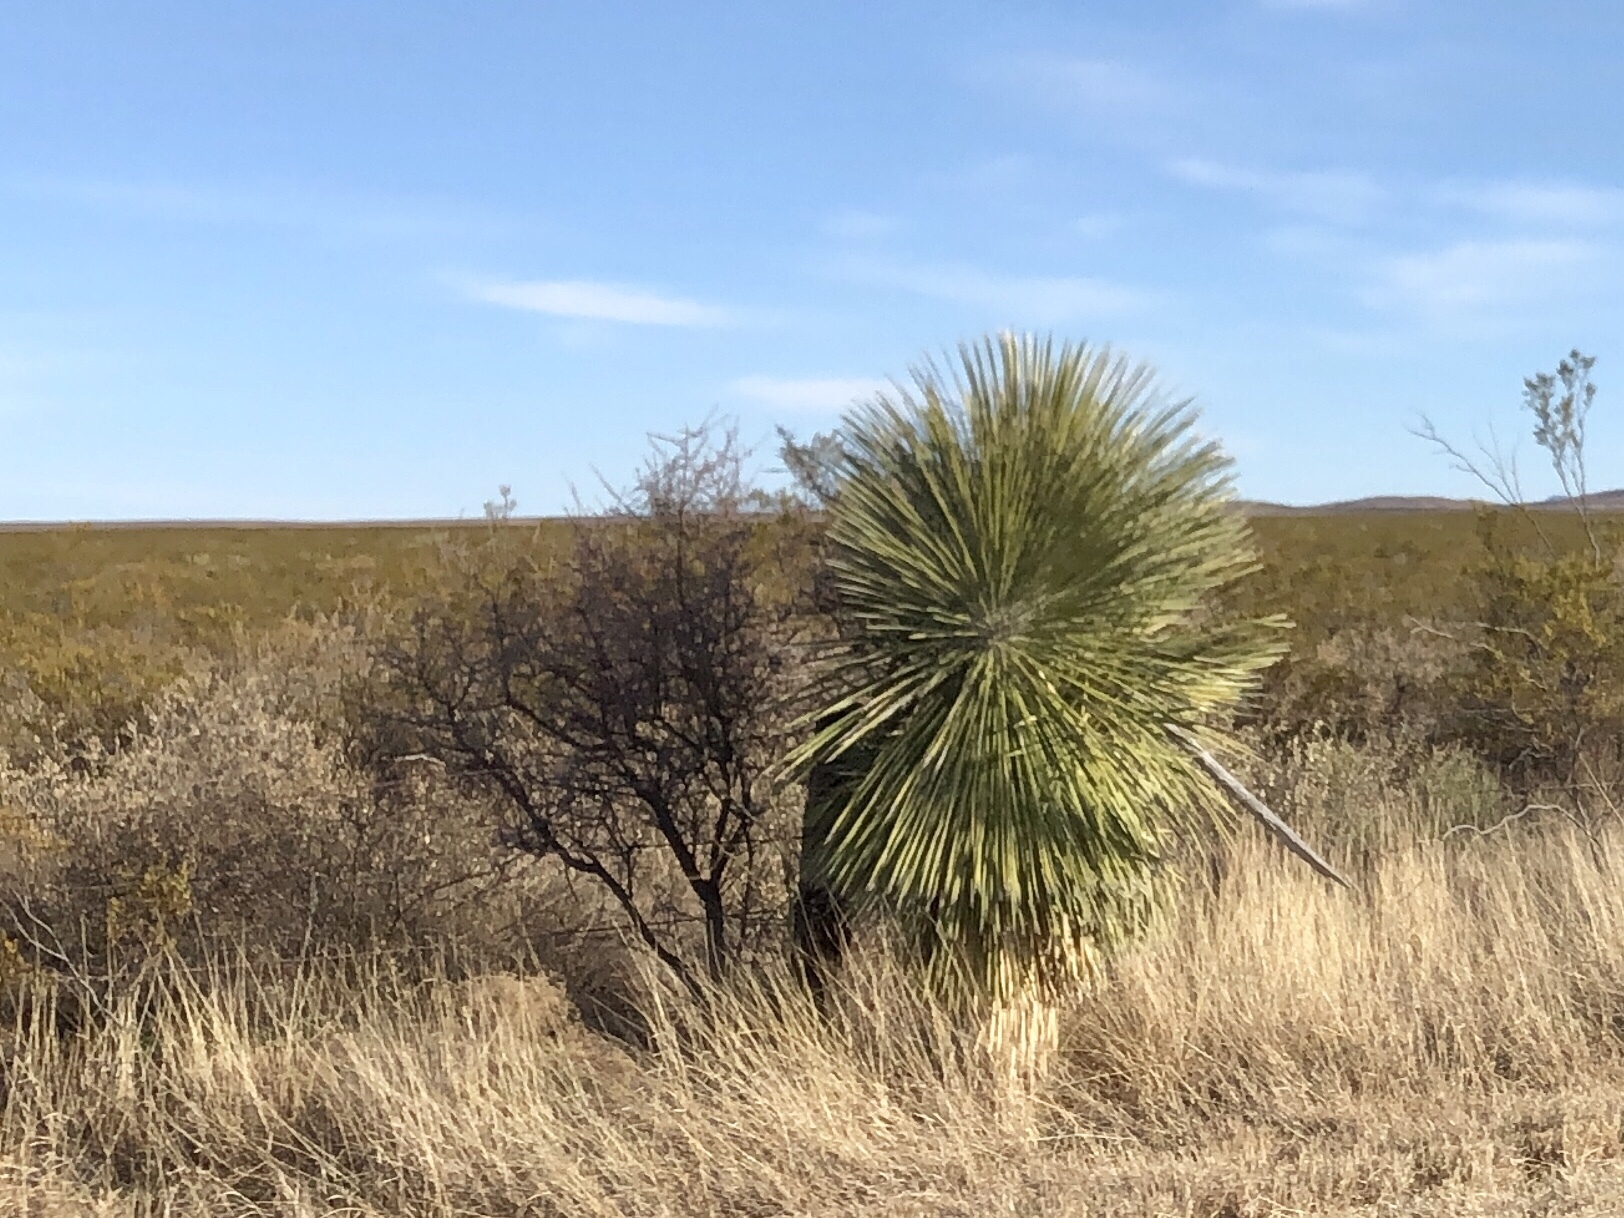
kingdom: Plantae
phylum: Tracheophyta
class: Liliopsida
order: Asparagales
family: Asparagaceae
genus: Yucca
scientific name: Yucca elata
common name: Palmella
